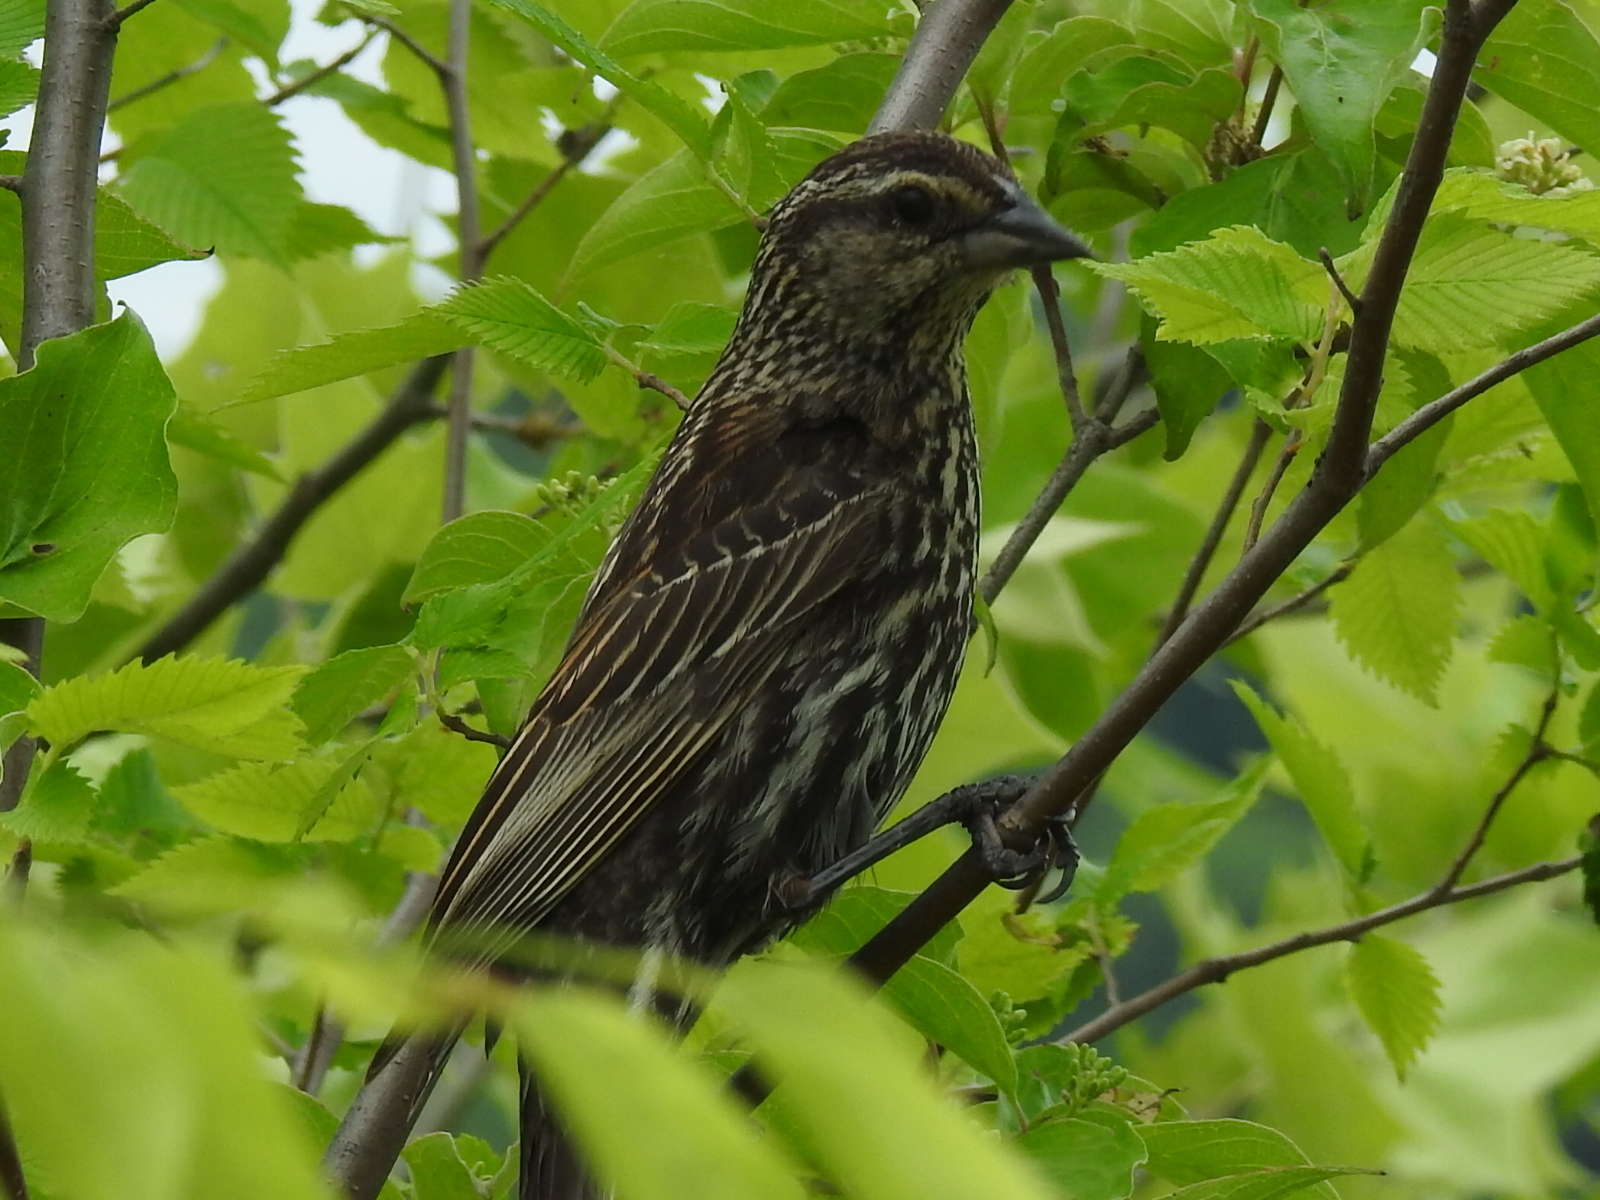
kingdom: Animalia
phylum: Chordata
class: Aves
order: Passeriformes
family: Icteridae
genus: Agelaius
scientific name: Agelaius phoeniceus
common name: Red-winged blackbird
